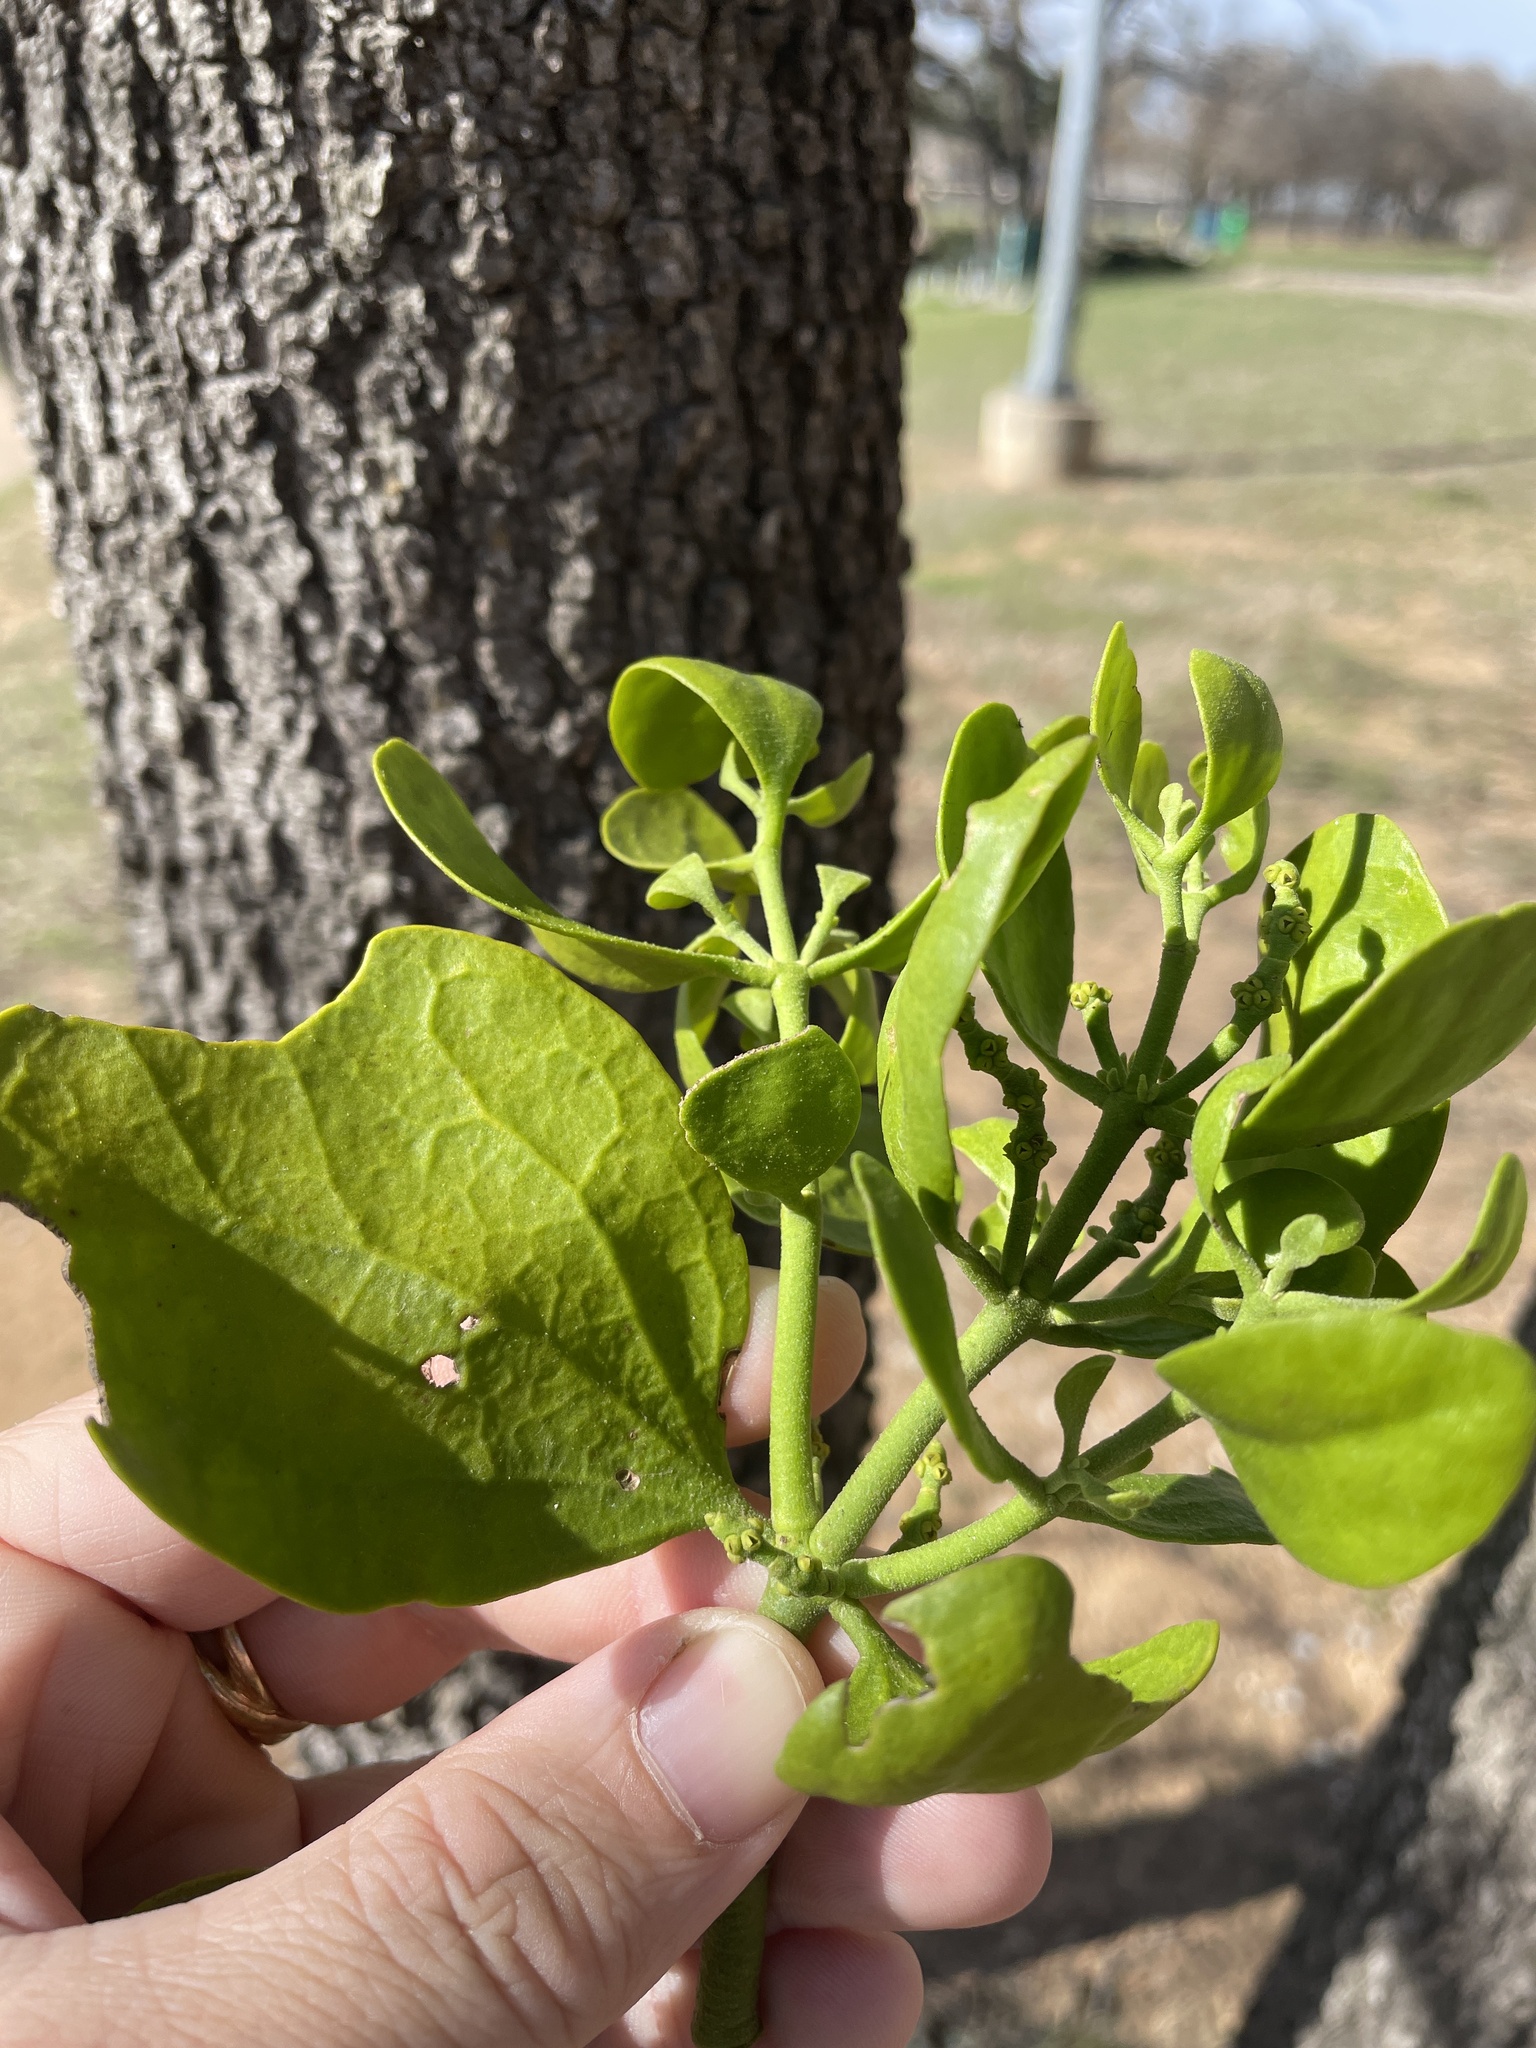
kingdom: Plantae
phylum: Tracheophyta
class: Magnoliopsida
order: Santalales
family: Viscaceae
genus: Phoradendron
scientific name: Phoradendron leucarpum
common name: Pacific mistletoe
